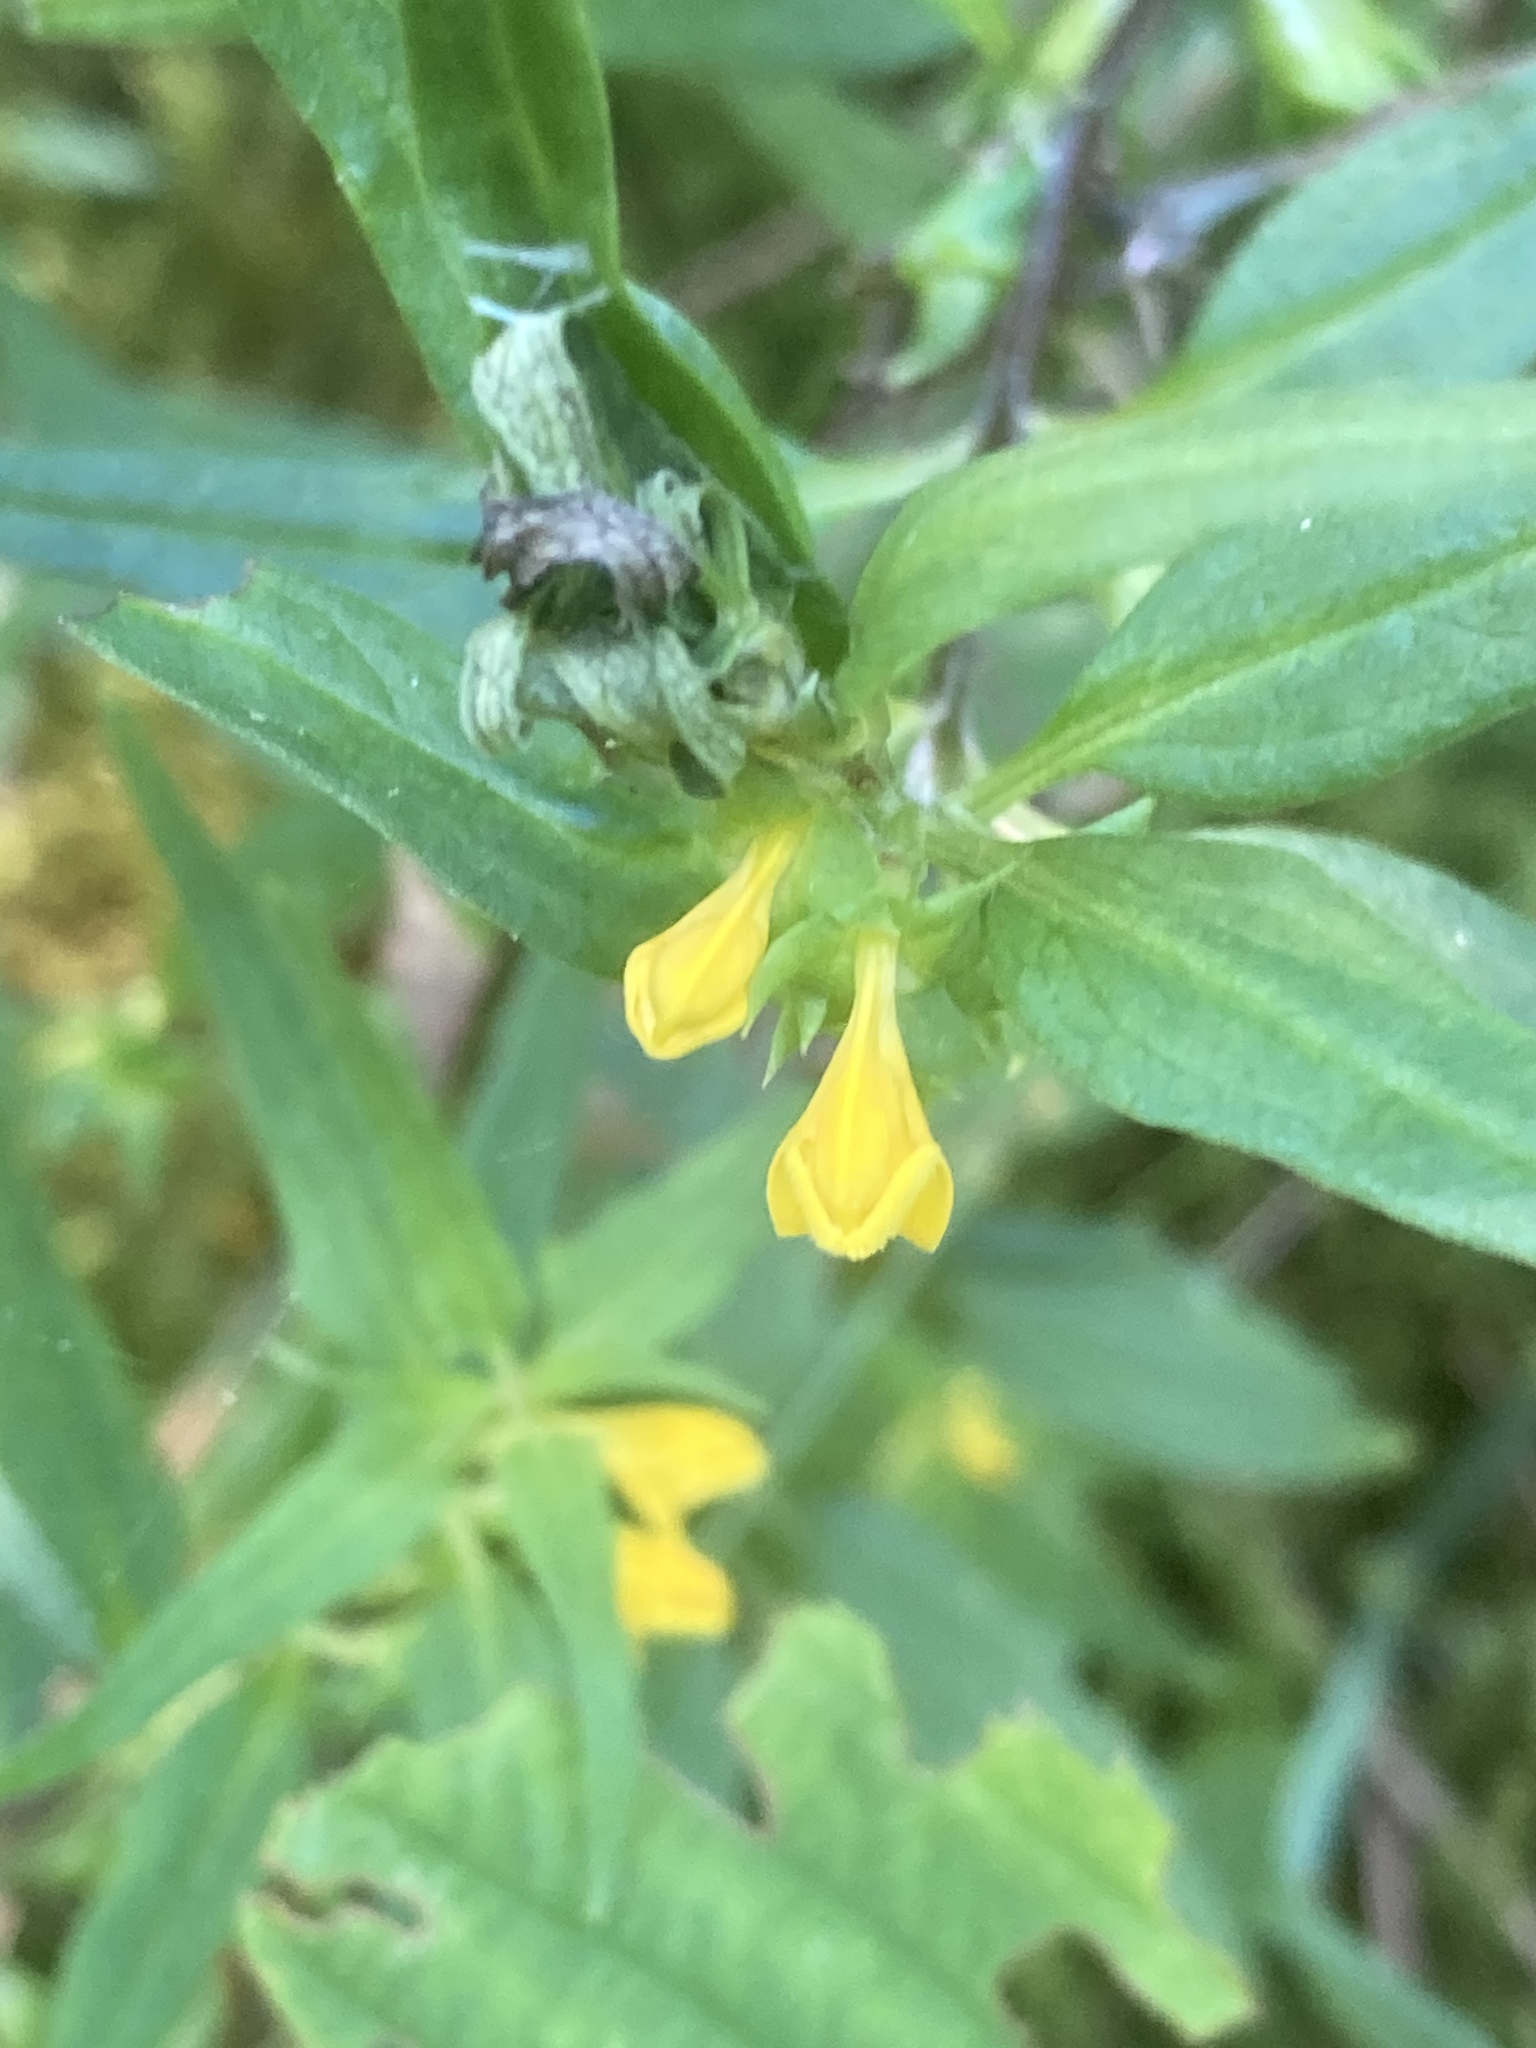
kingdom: Plantae
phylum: Tracheophyta
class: Magnoliopsida
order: Lamiales
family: Orobanchaceae
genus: Melampyrum
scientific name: Melampyrum sylvaticum
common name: Small cow-wheat
